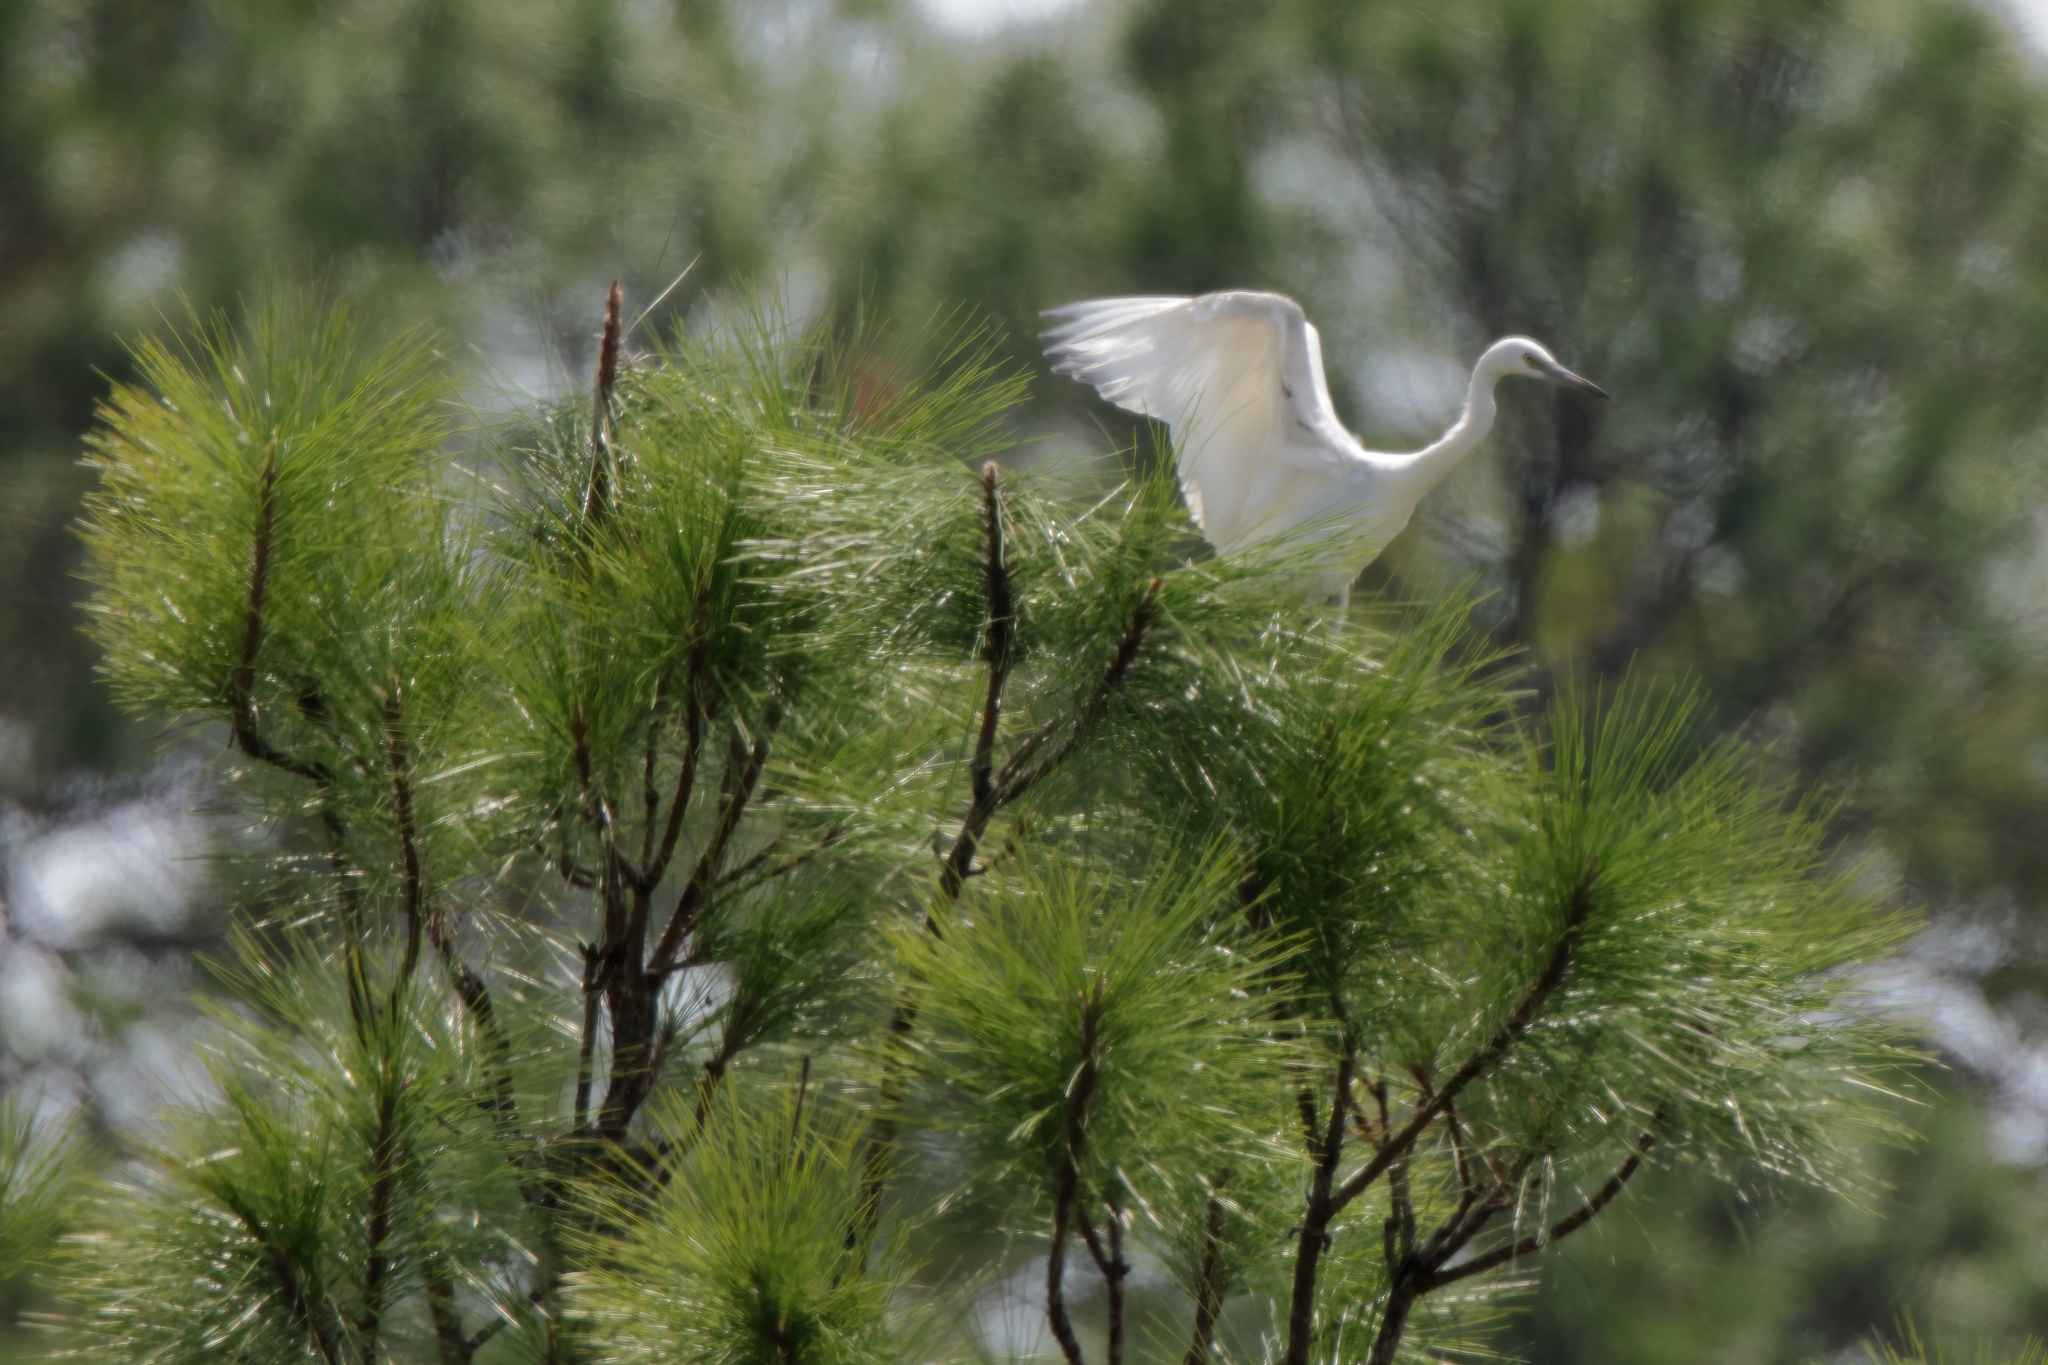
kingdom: Animalia
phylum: Chordata
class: Aves
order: Pelecaniformes
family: Ardeidae
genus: Egretta
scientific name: Egretta caerulea
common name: Little blue heron
